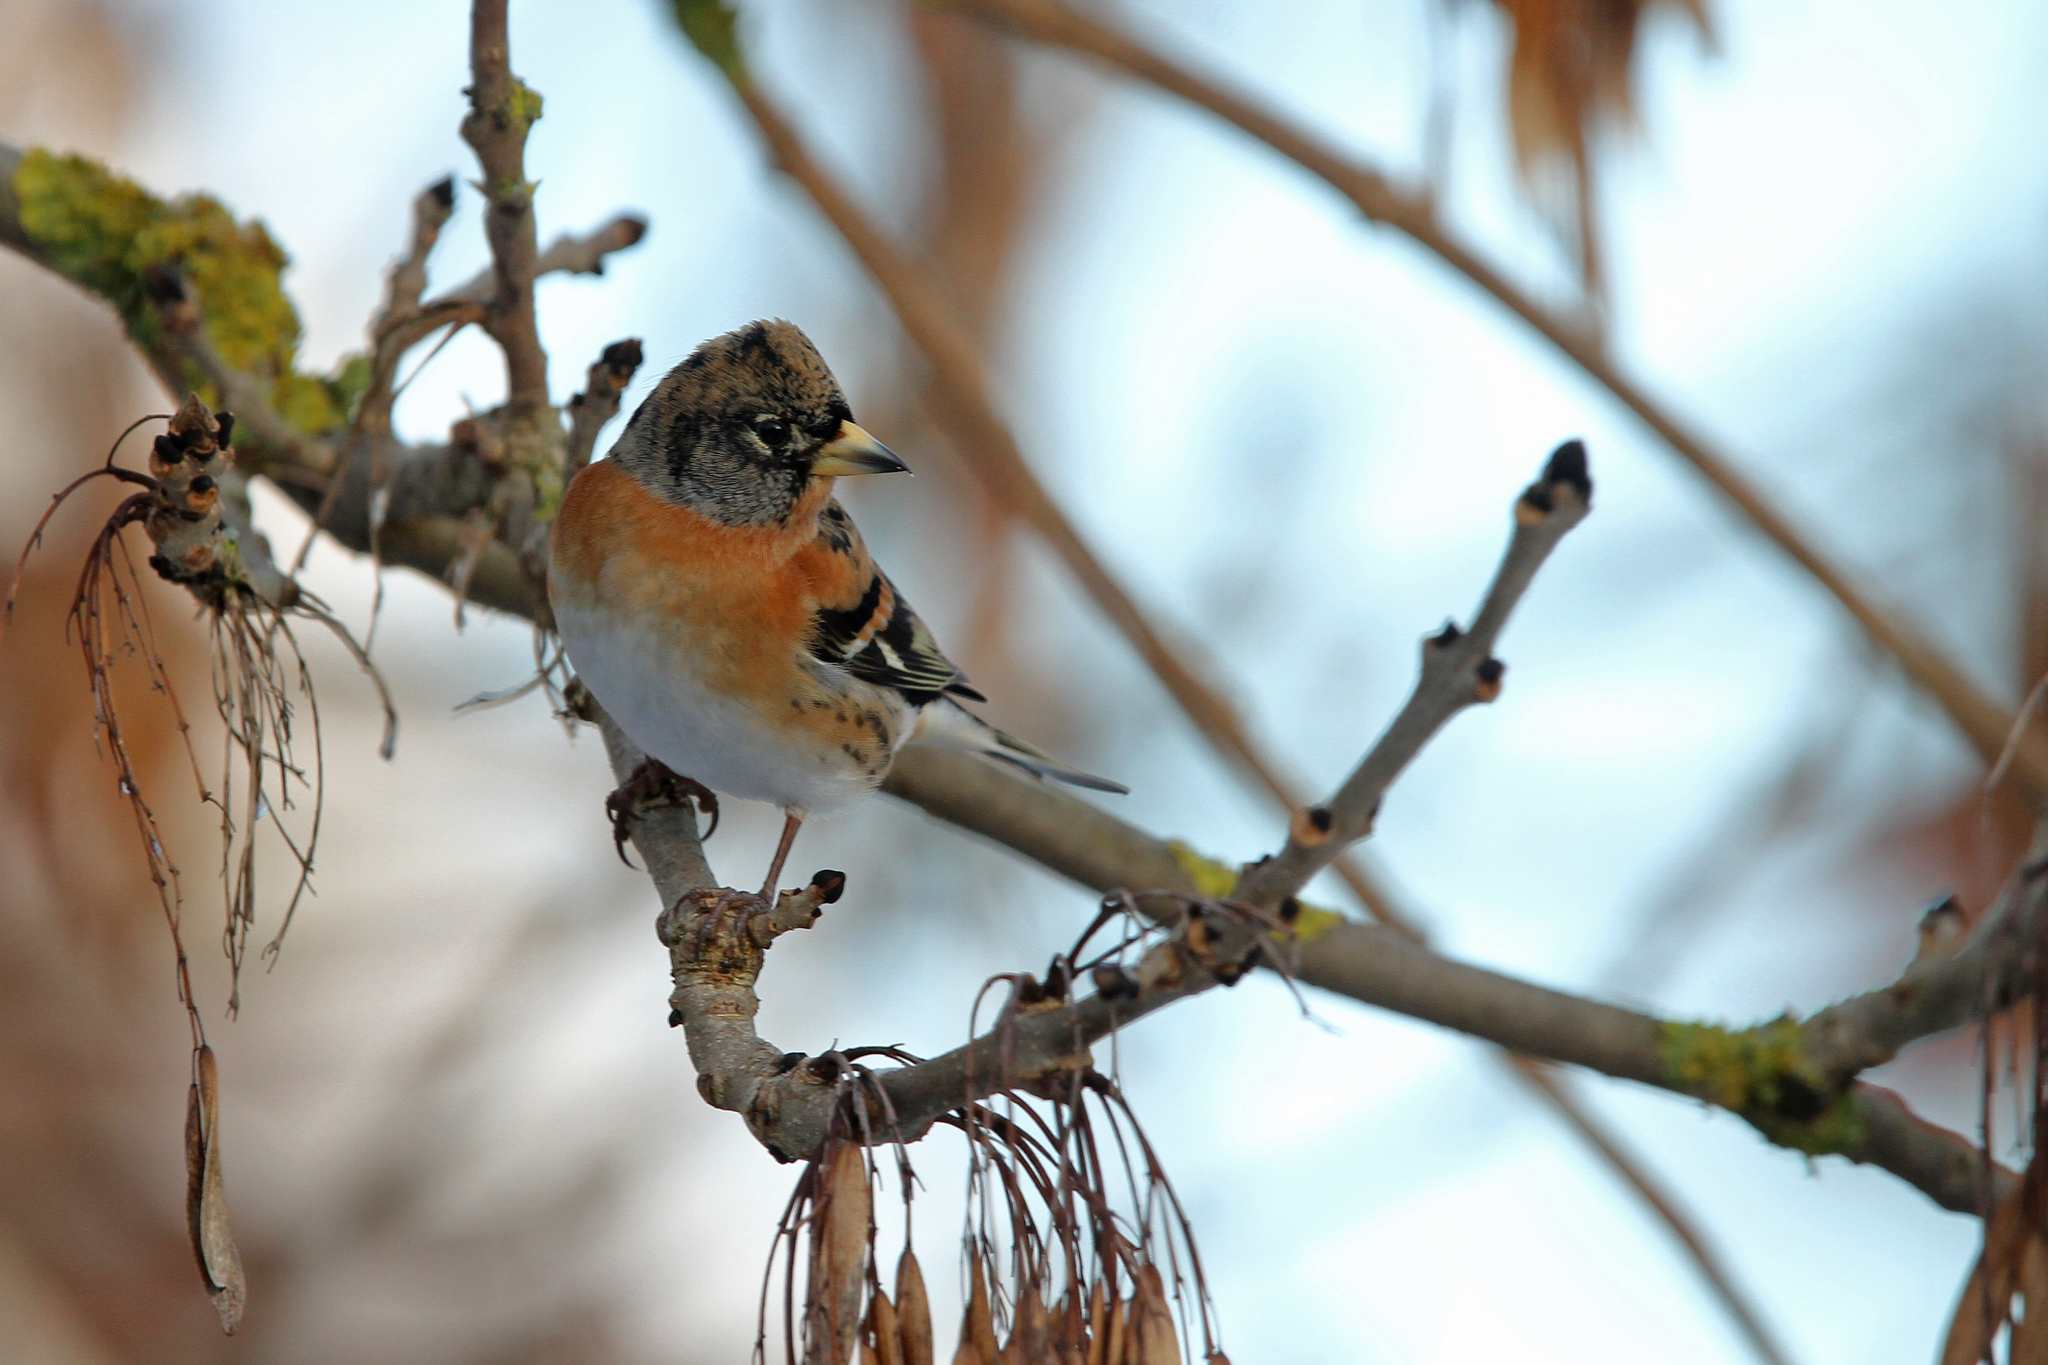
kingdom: Animalia
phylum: Chordata
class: Aves
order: Passeriformes
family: Fringillidae
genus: Fringilla
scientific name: Fringilla montifringilla
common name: Brambling
